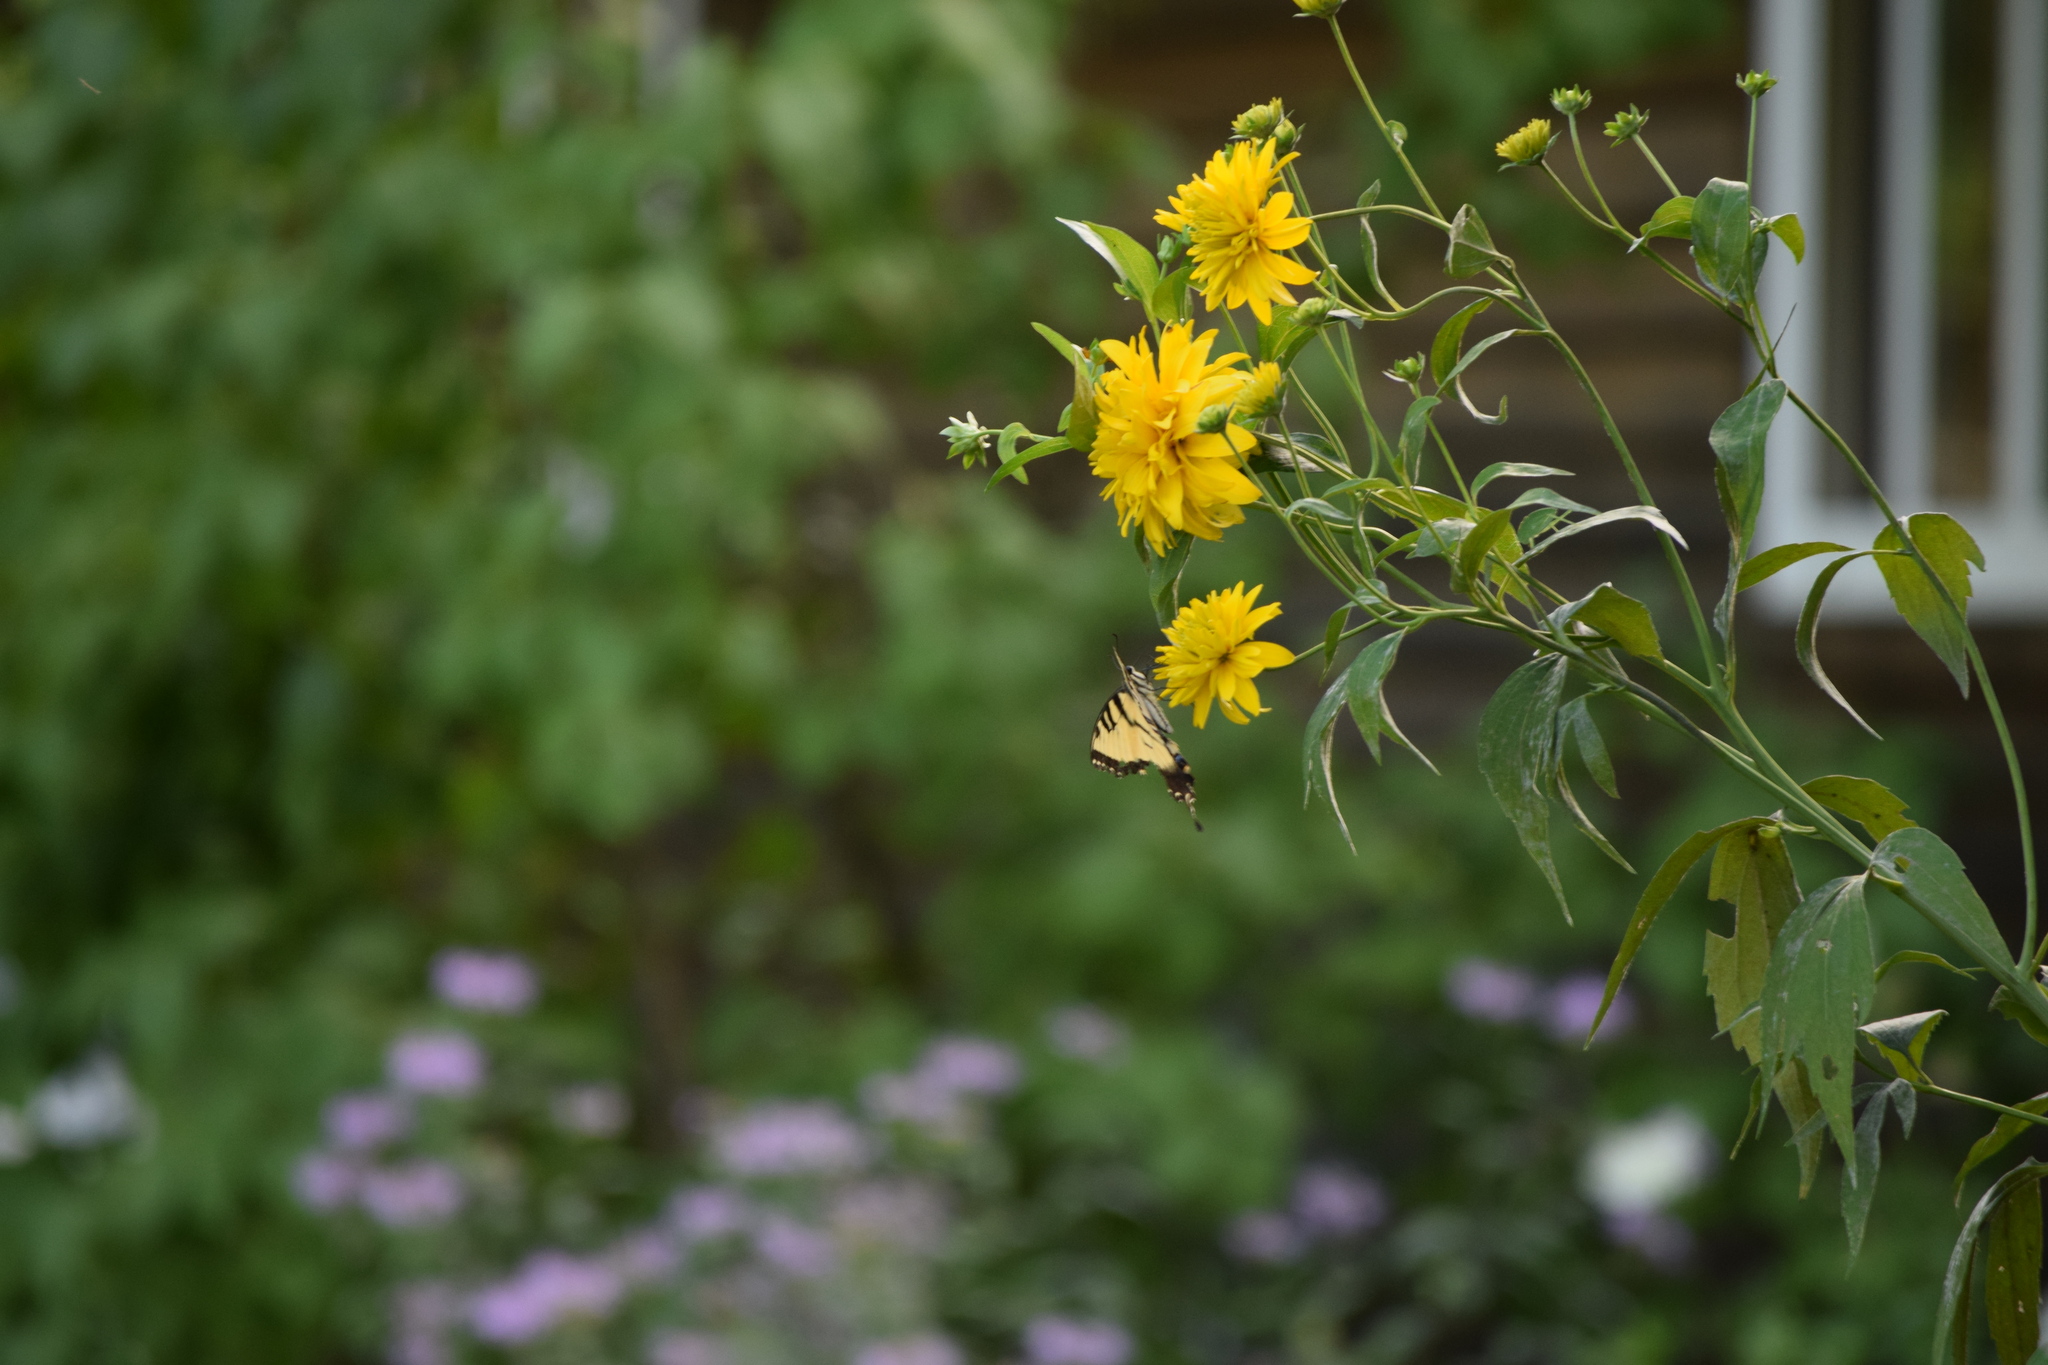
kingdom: Animalia
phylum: Arthropoda
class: Insecta
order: Lepidoptera
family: Papilionidae
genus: Papilio
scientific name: Papilio glaucus
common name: Tiger swallowtail
